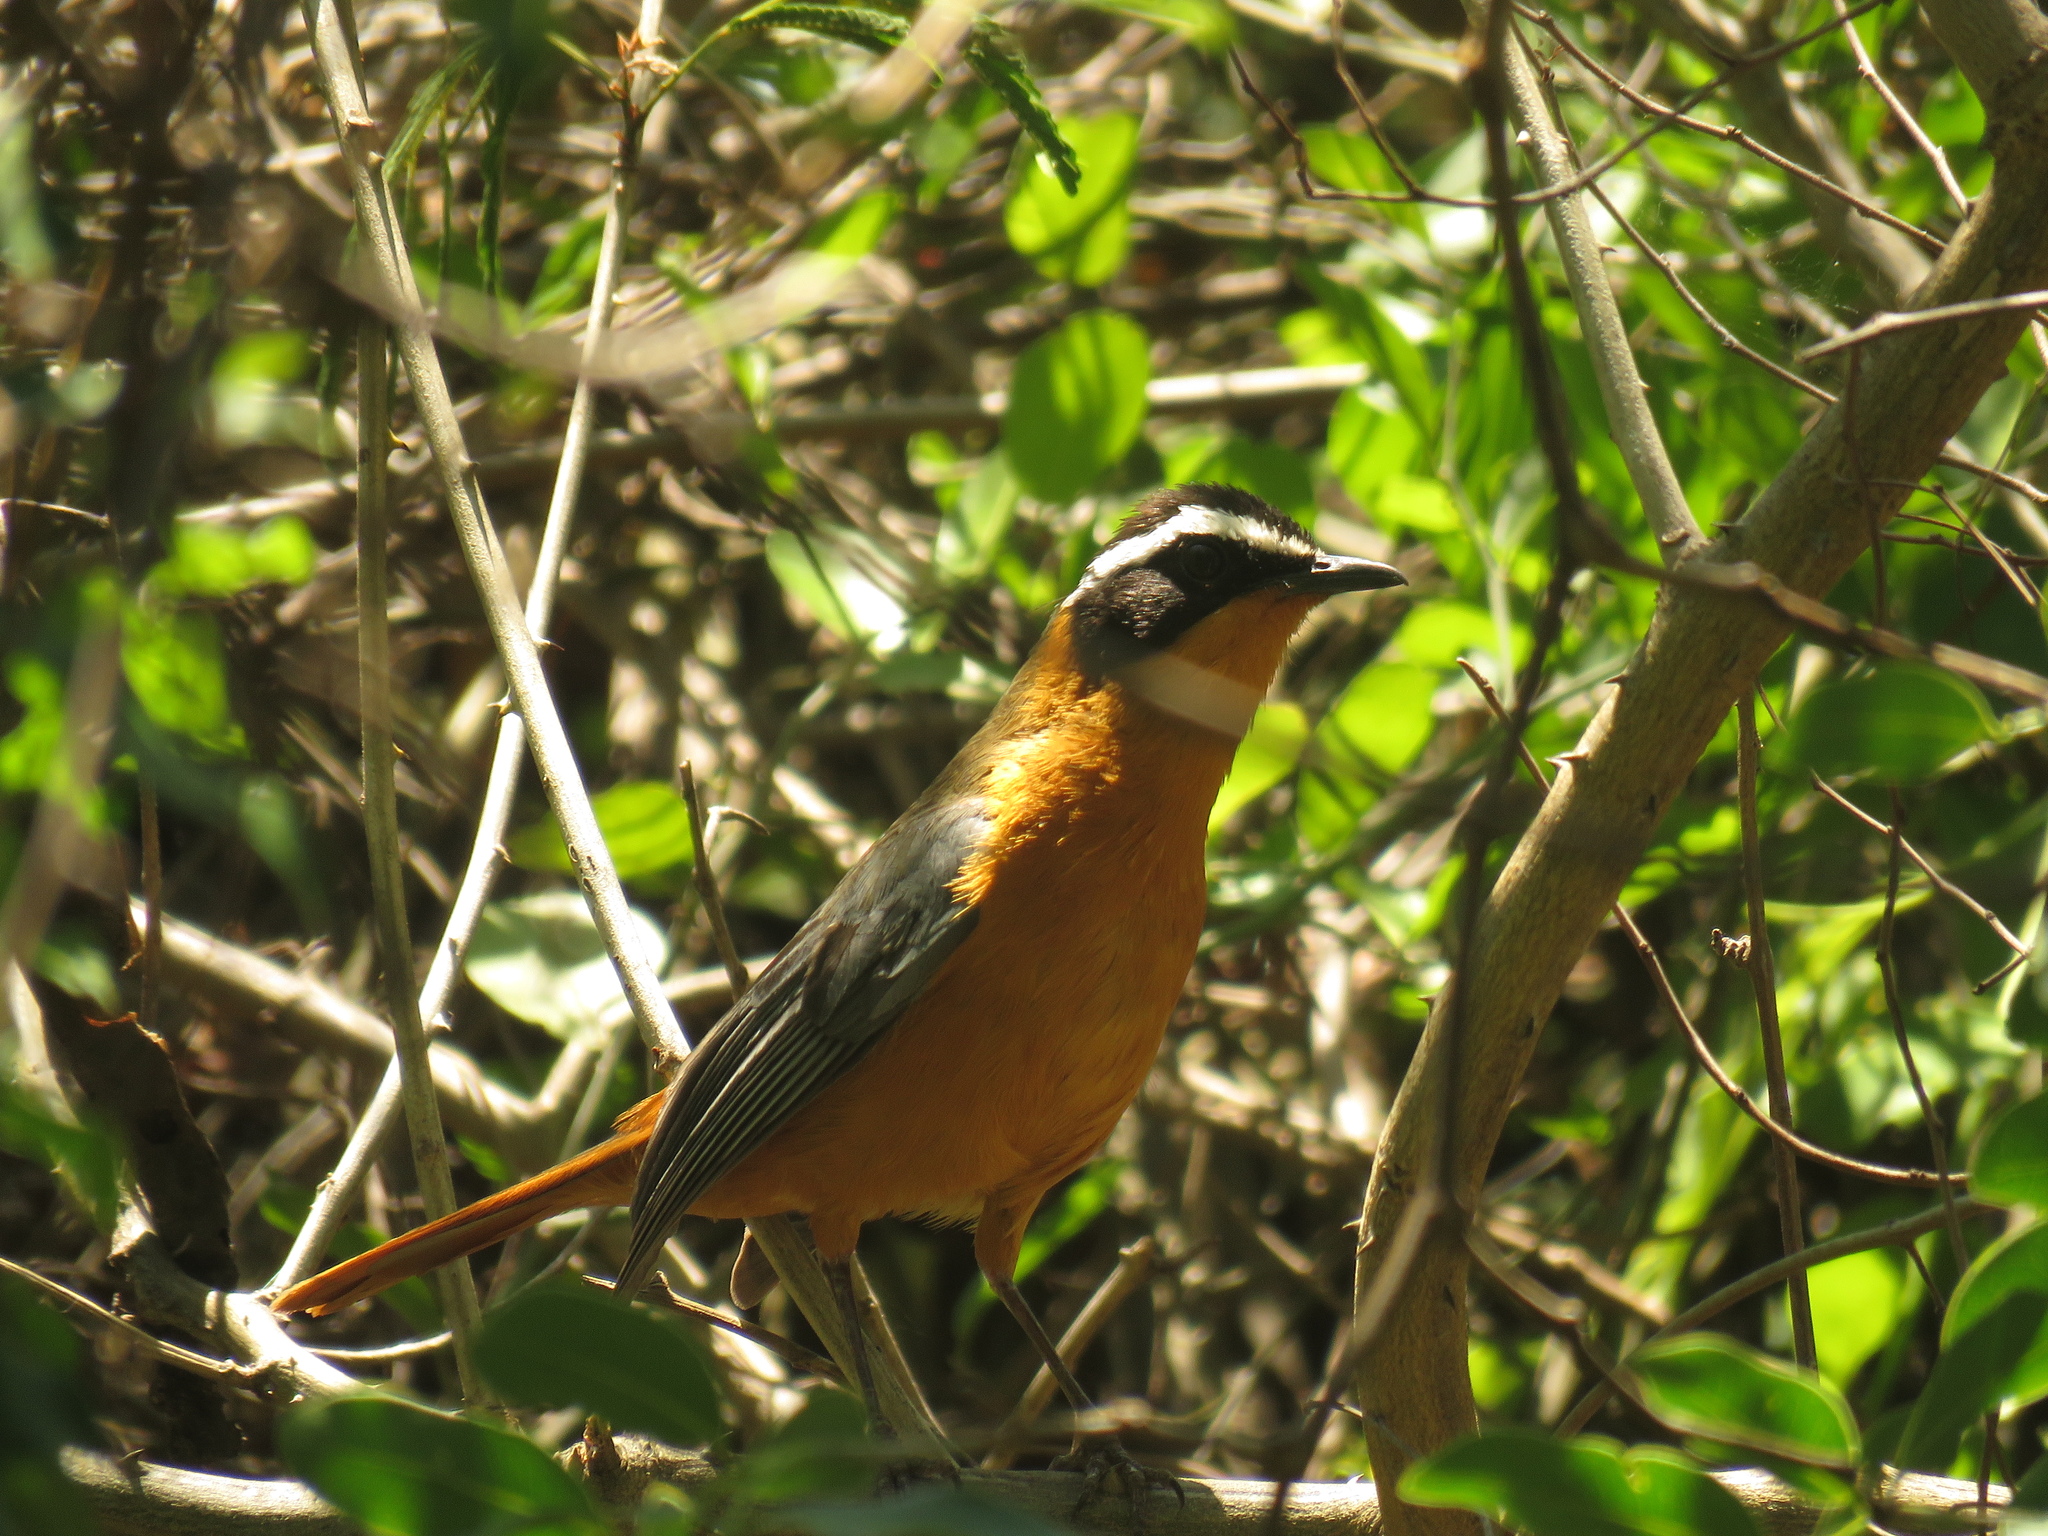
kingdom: Animalia
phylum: Chordata
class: Aves
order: Passeriformes
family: Muscicapidae
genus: Cossypha
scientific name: Cossypha heuglini
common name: White-browed robin-chat
